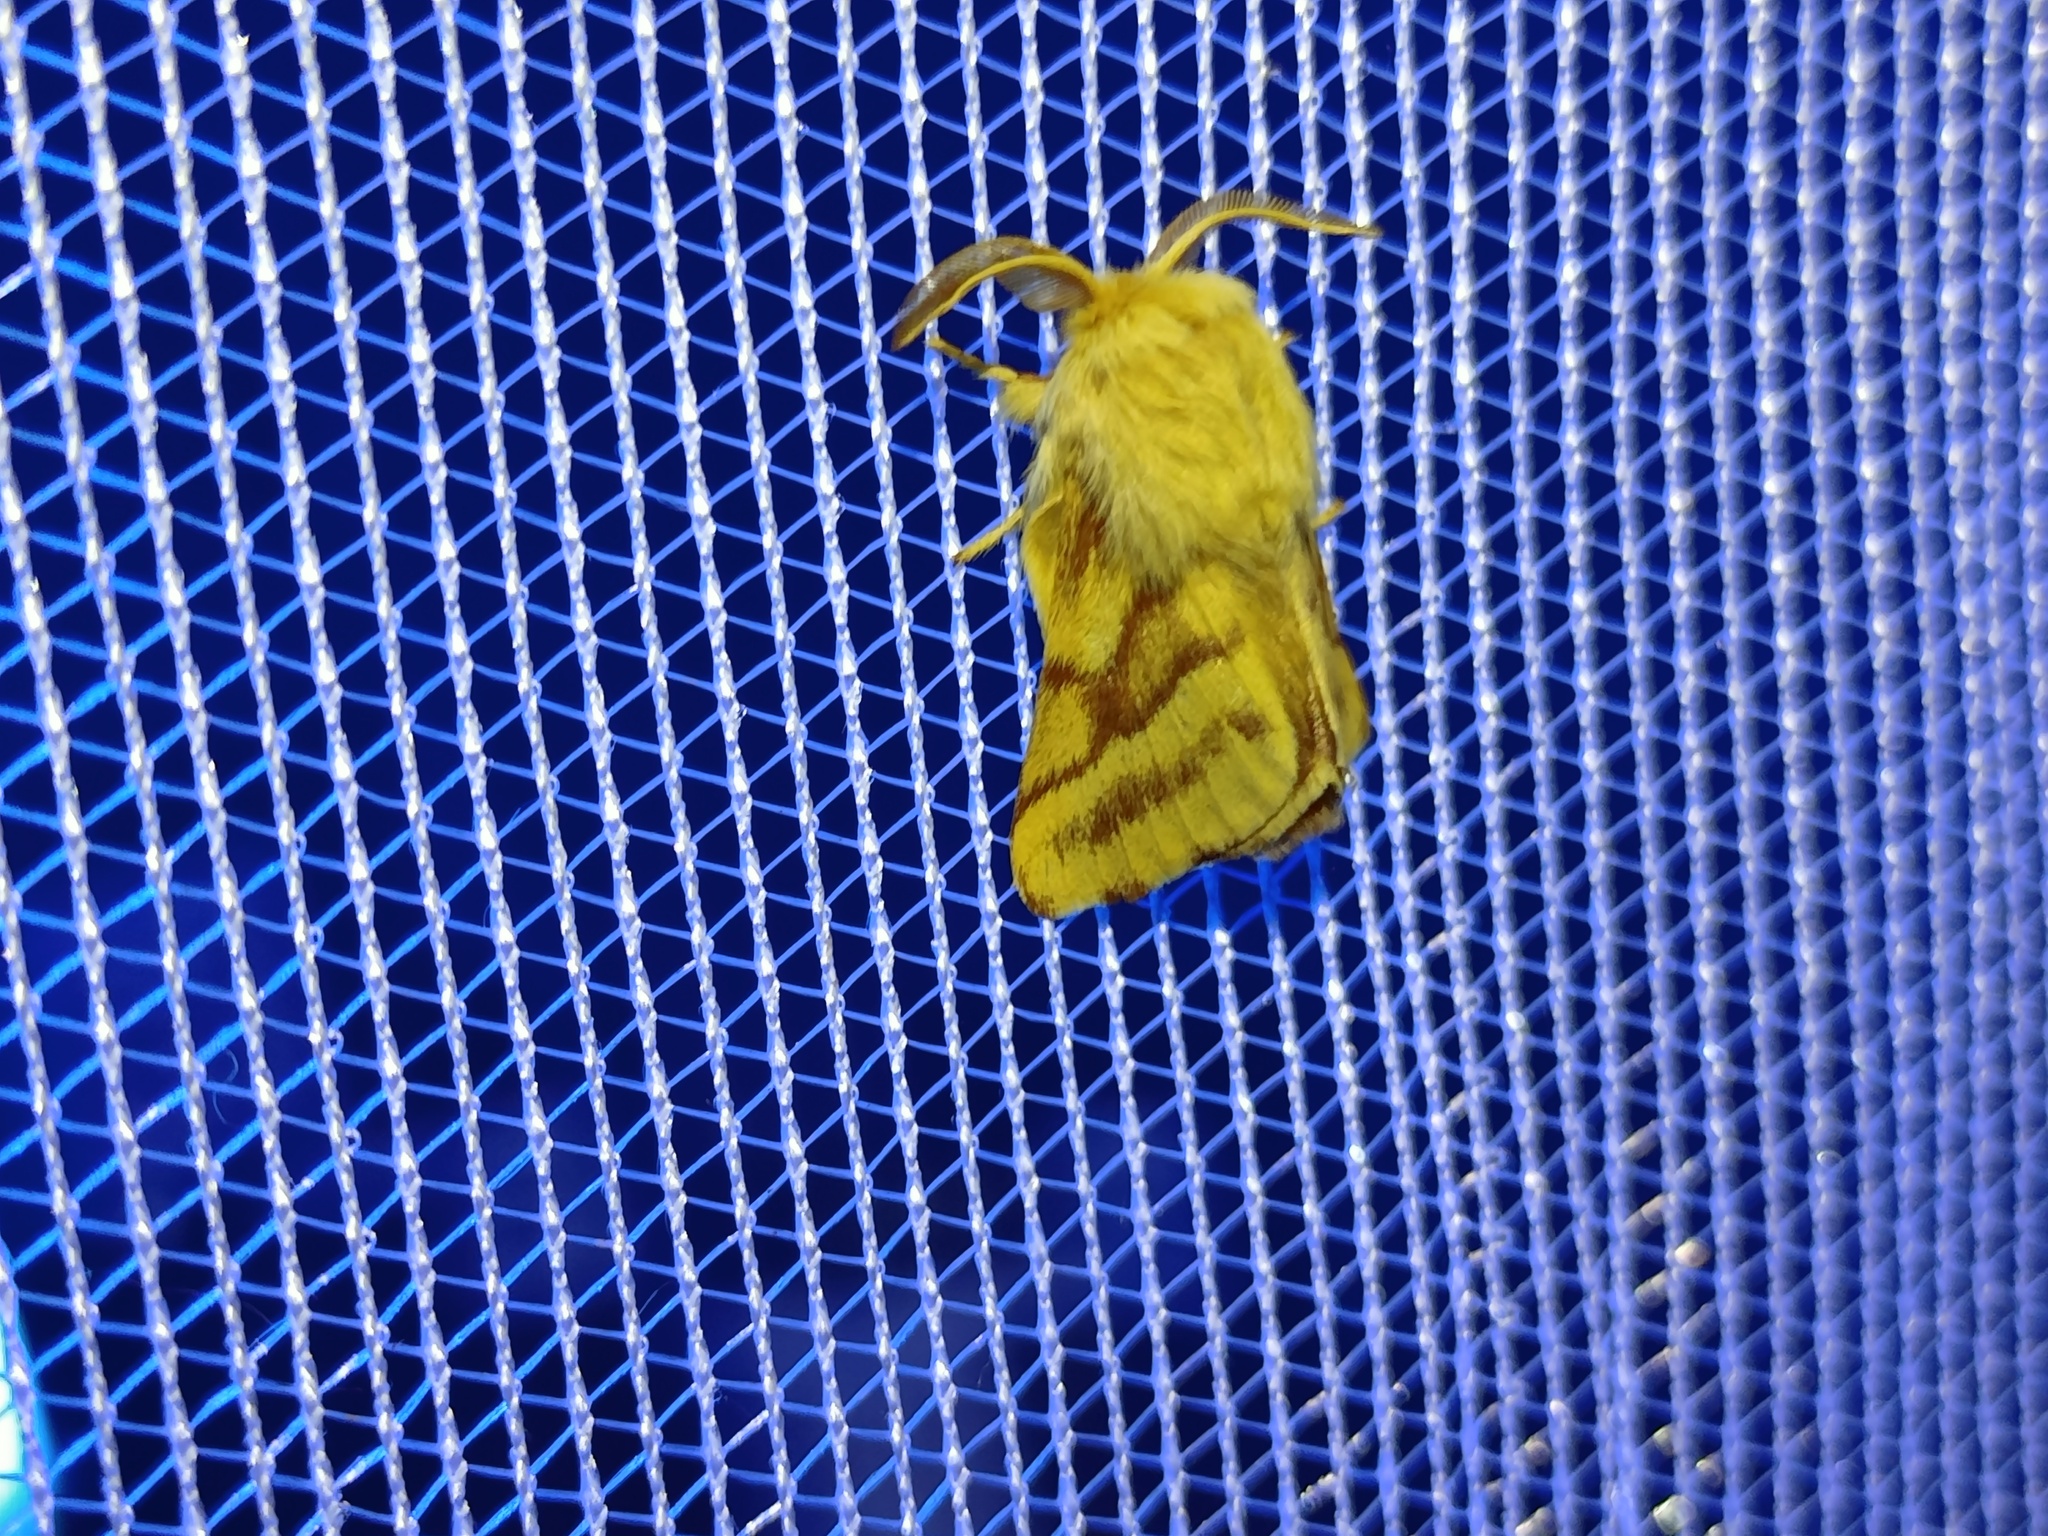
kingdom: Animalia
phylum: Arthropoda
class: Insecta
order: Lepidoptera
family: Lasiocampidae
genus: Malacosoma
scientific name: Malacosoma castrense
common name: Ground lackey
